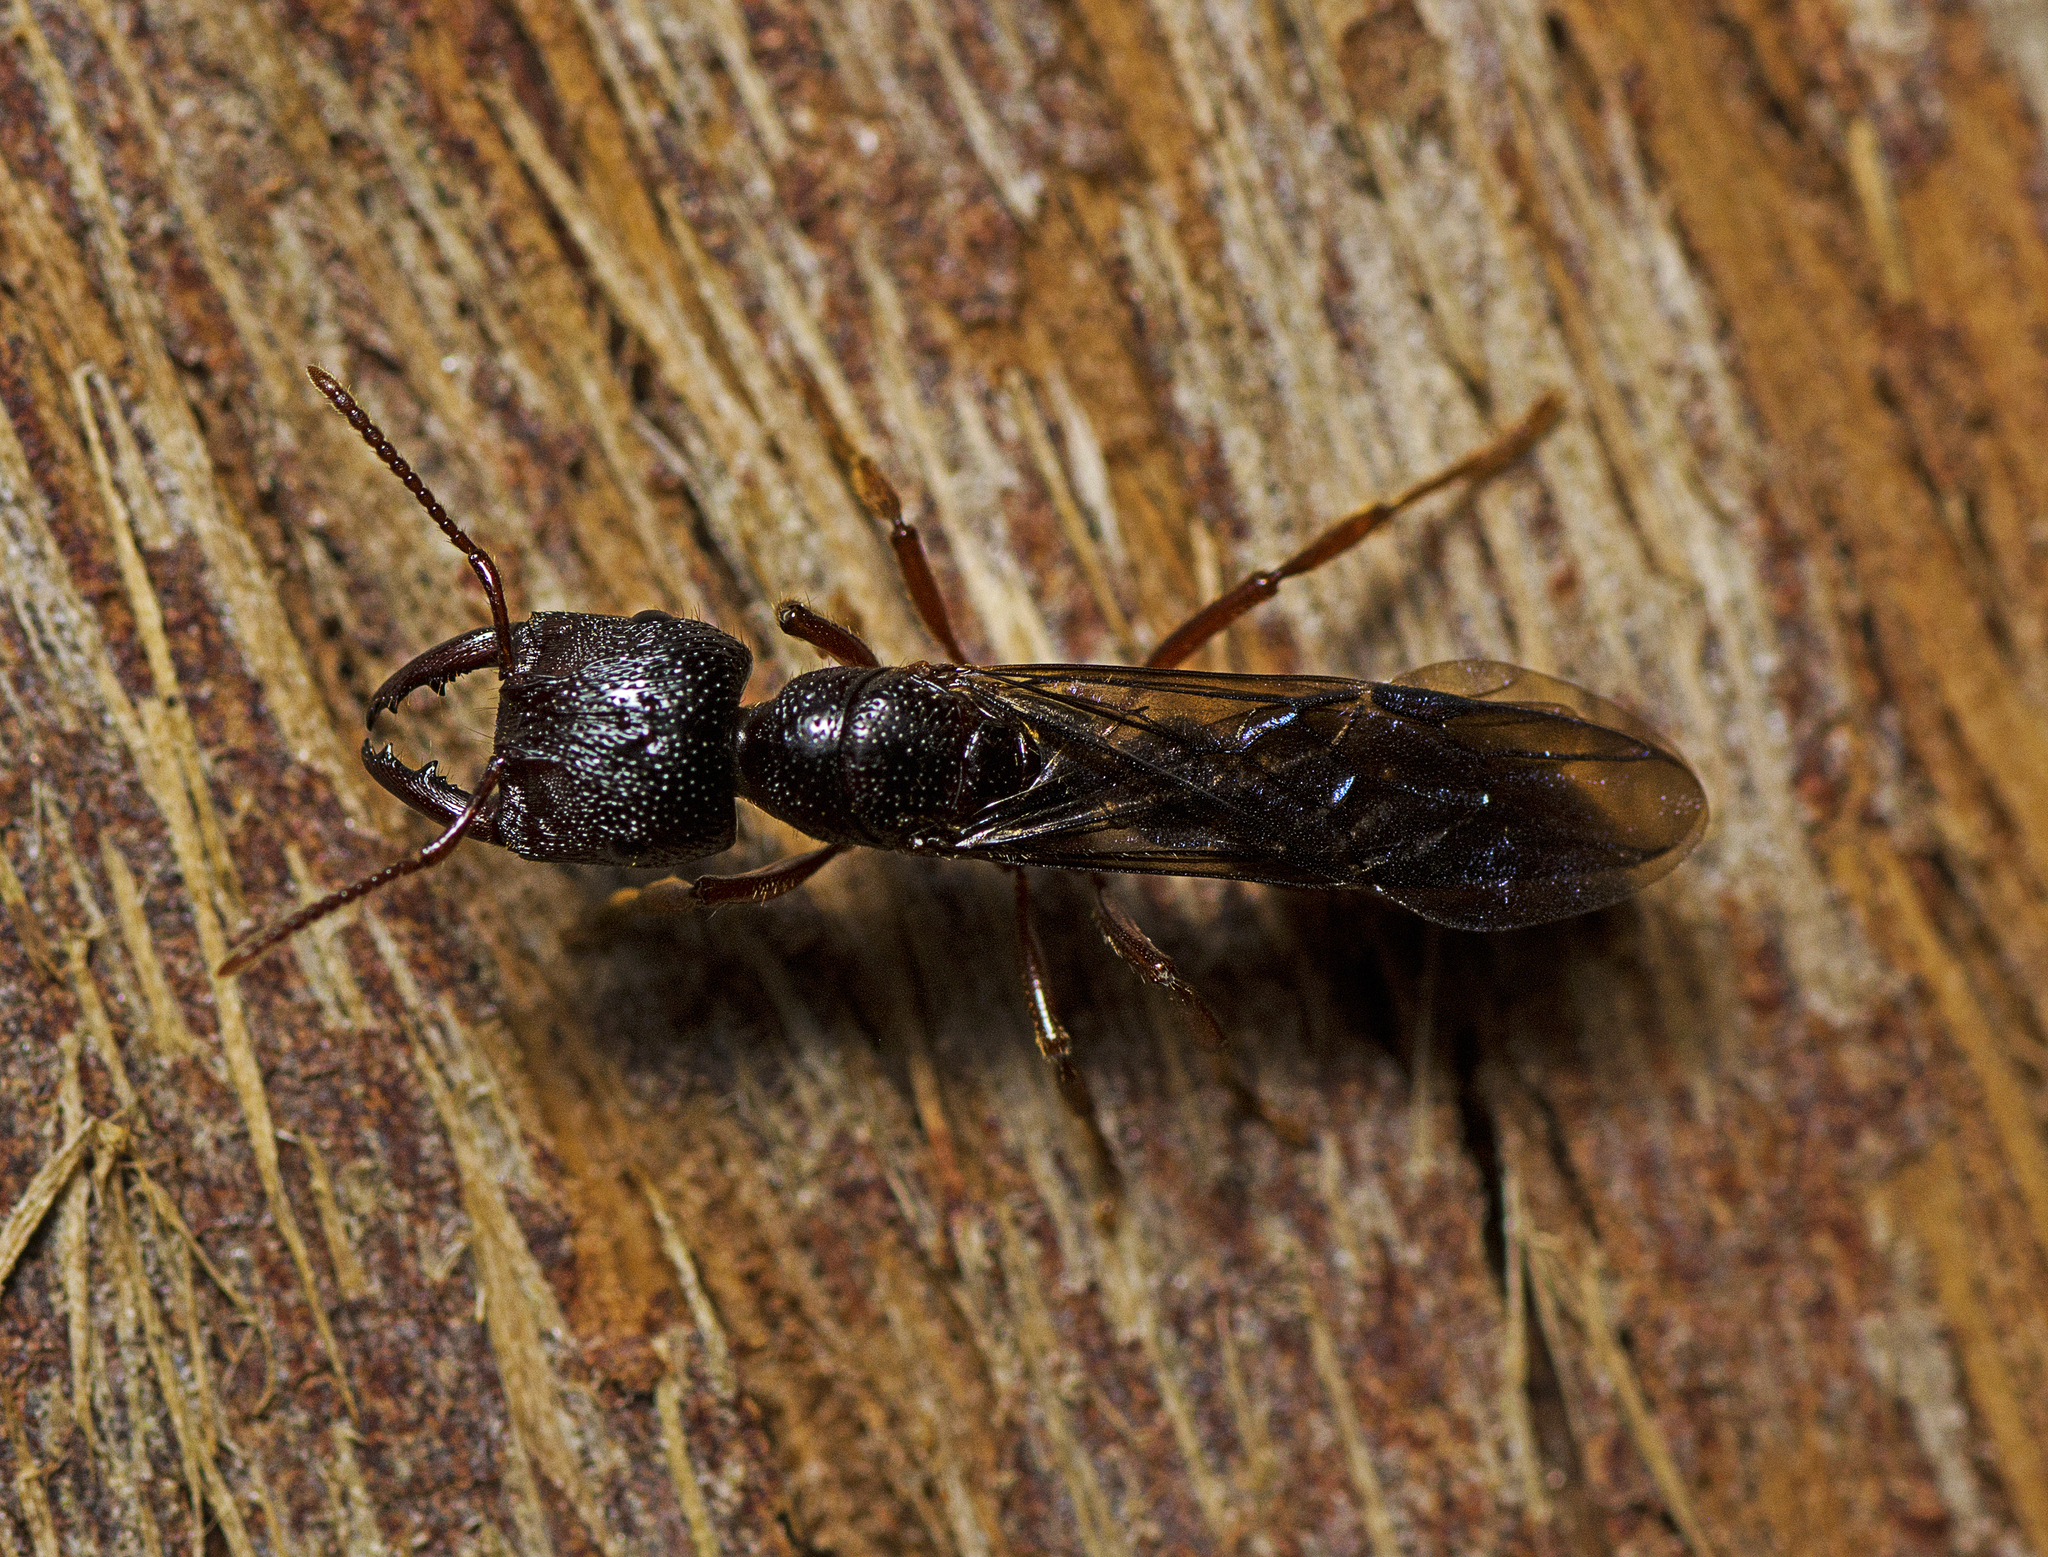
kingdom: Animalia
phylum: Arthropoda
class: Insecta
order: Hymenoptera
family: Formicidae
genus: Amblyopone
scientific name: Amblyopone australis
